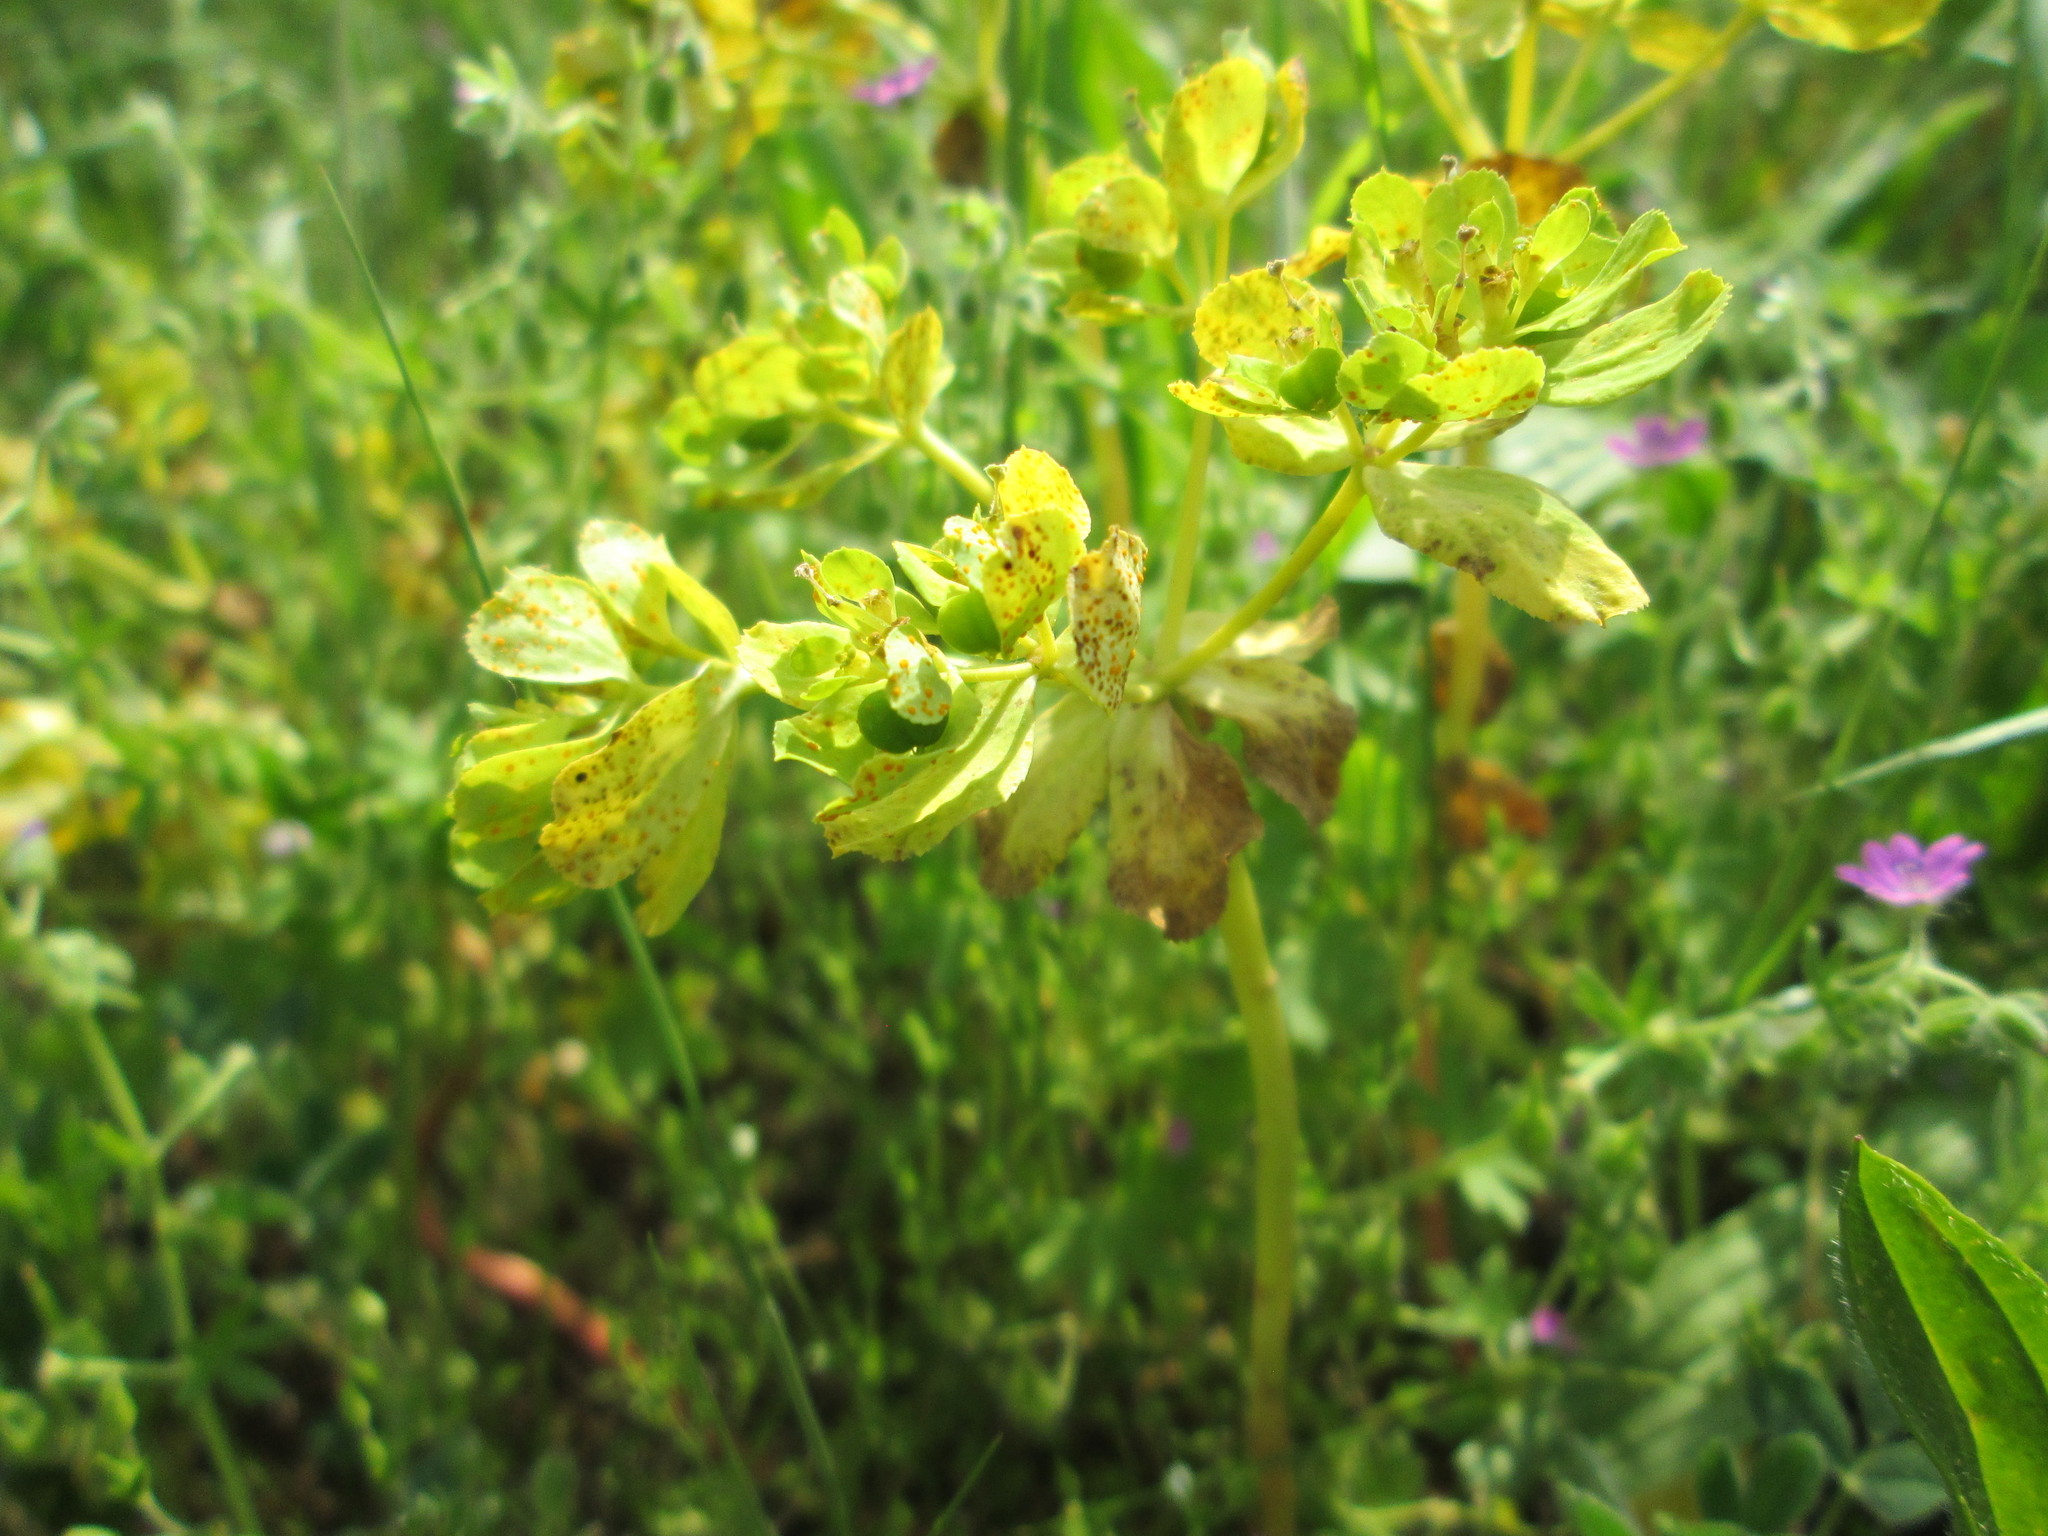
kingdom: Plantae
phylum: Tracheophyta
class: Magnoliopsida
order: Malpighiales
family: Euphorbiaceae
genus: Euphorbia
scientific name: Euphorbia helioscopia
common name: Sun spurge
